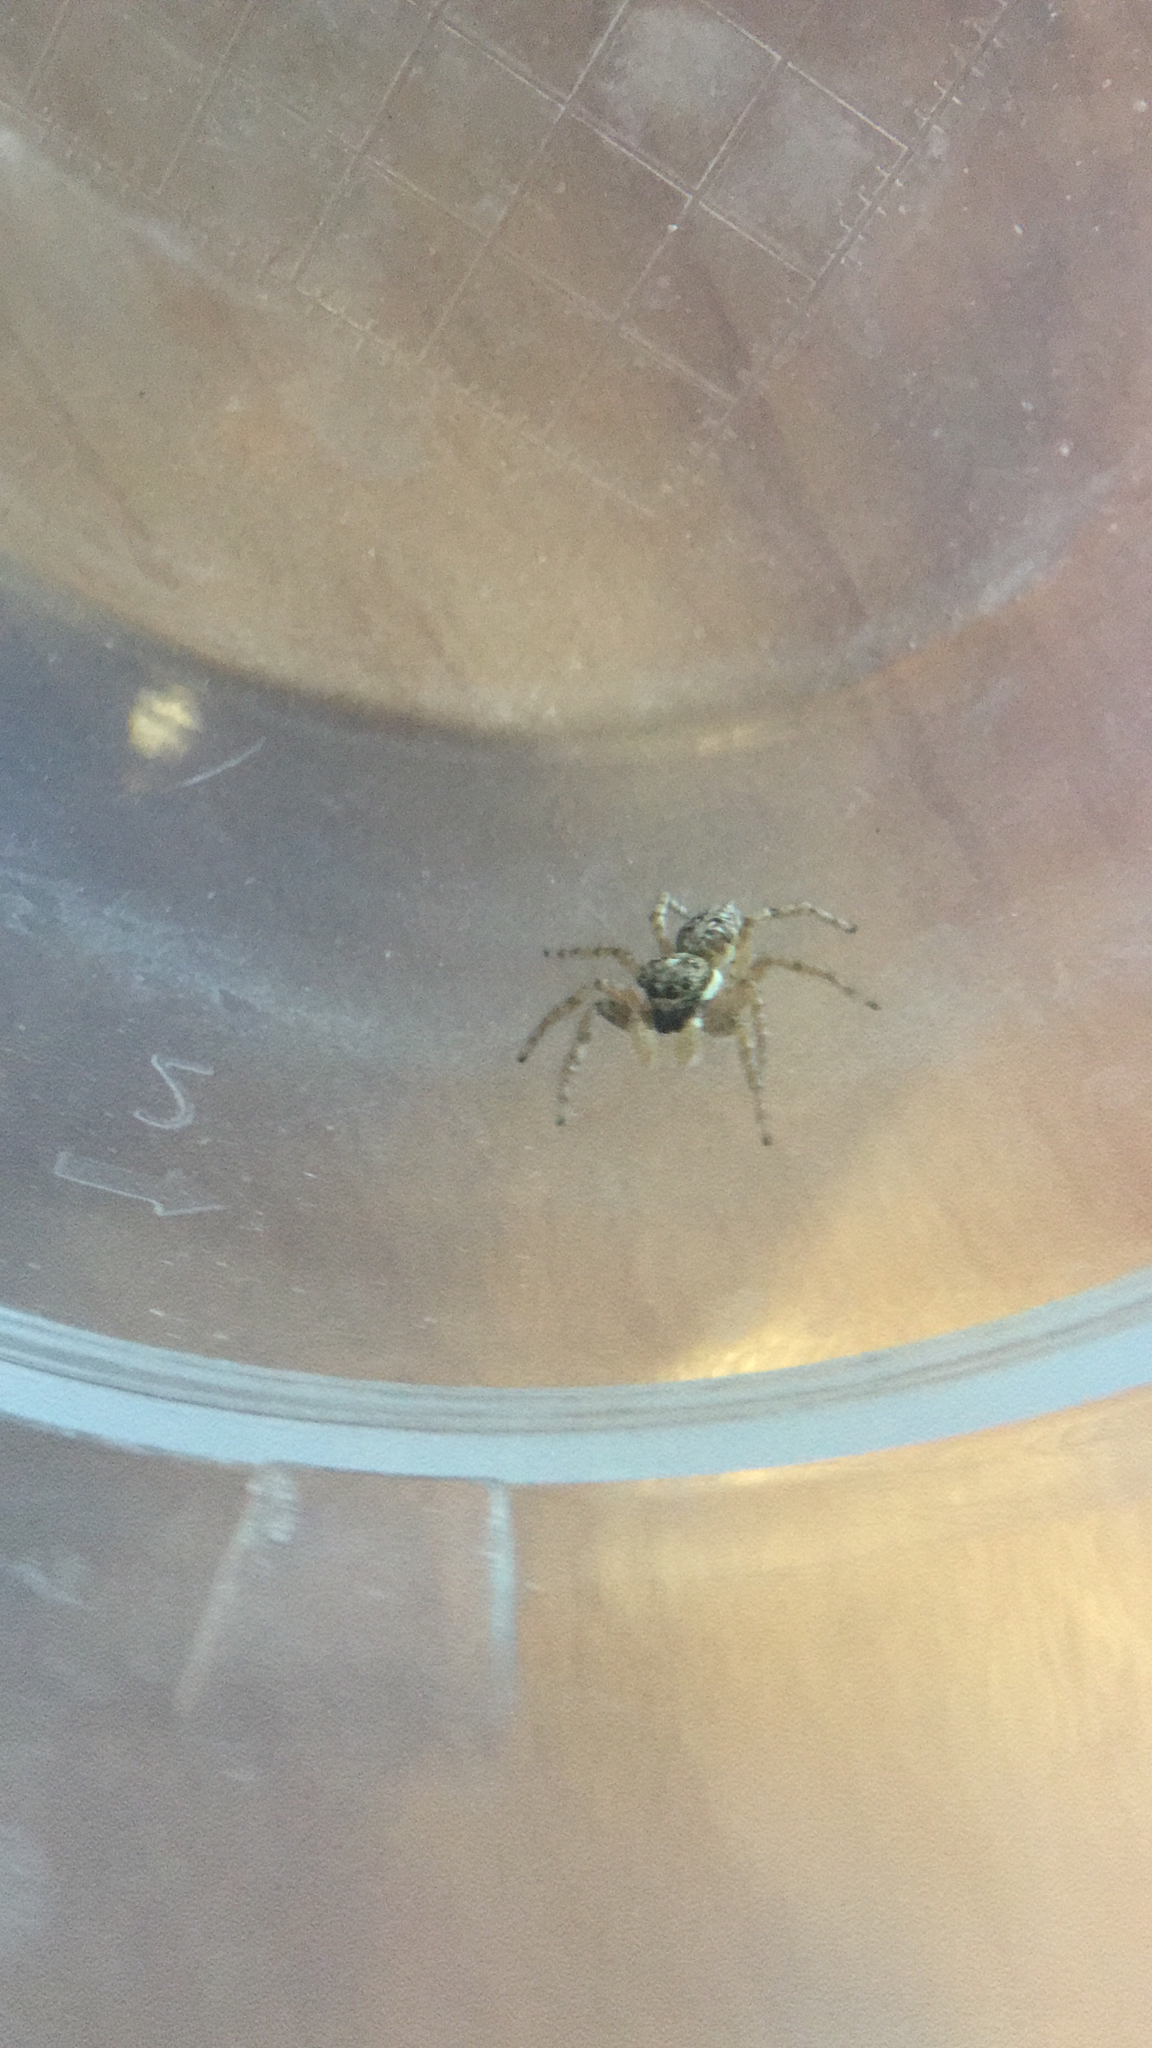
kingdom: Animalia
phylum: Arthropoda
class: Arachnida
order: Araneae
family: Salticidae
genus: Menemerus
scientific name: Menemerus semilimbatus
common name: Jumping spider
